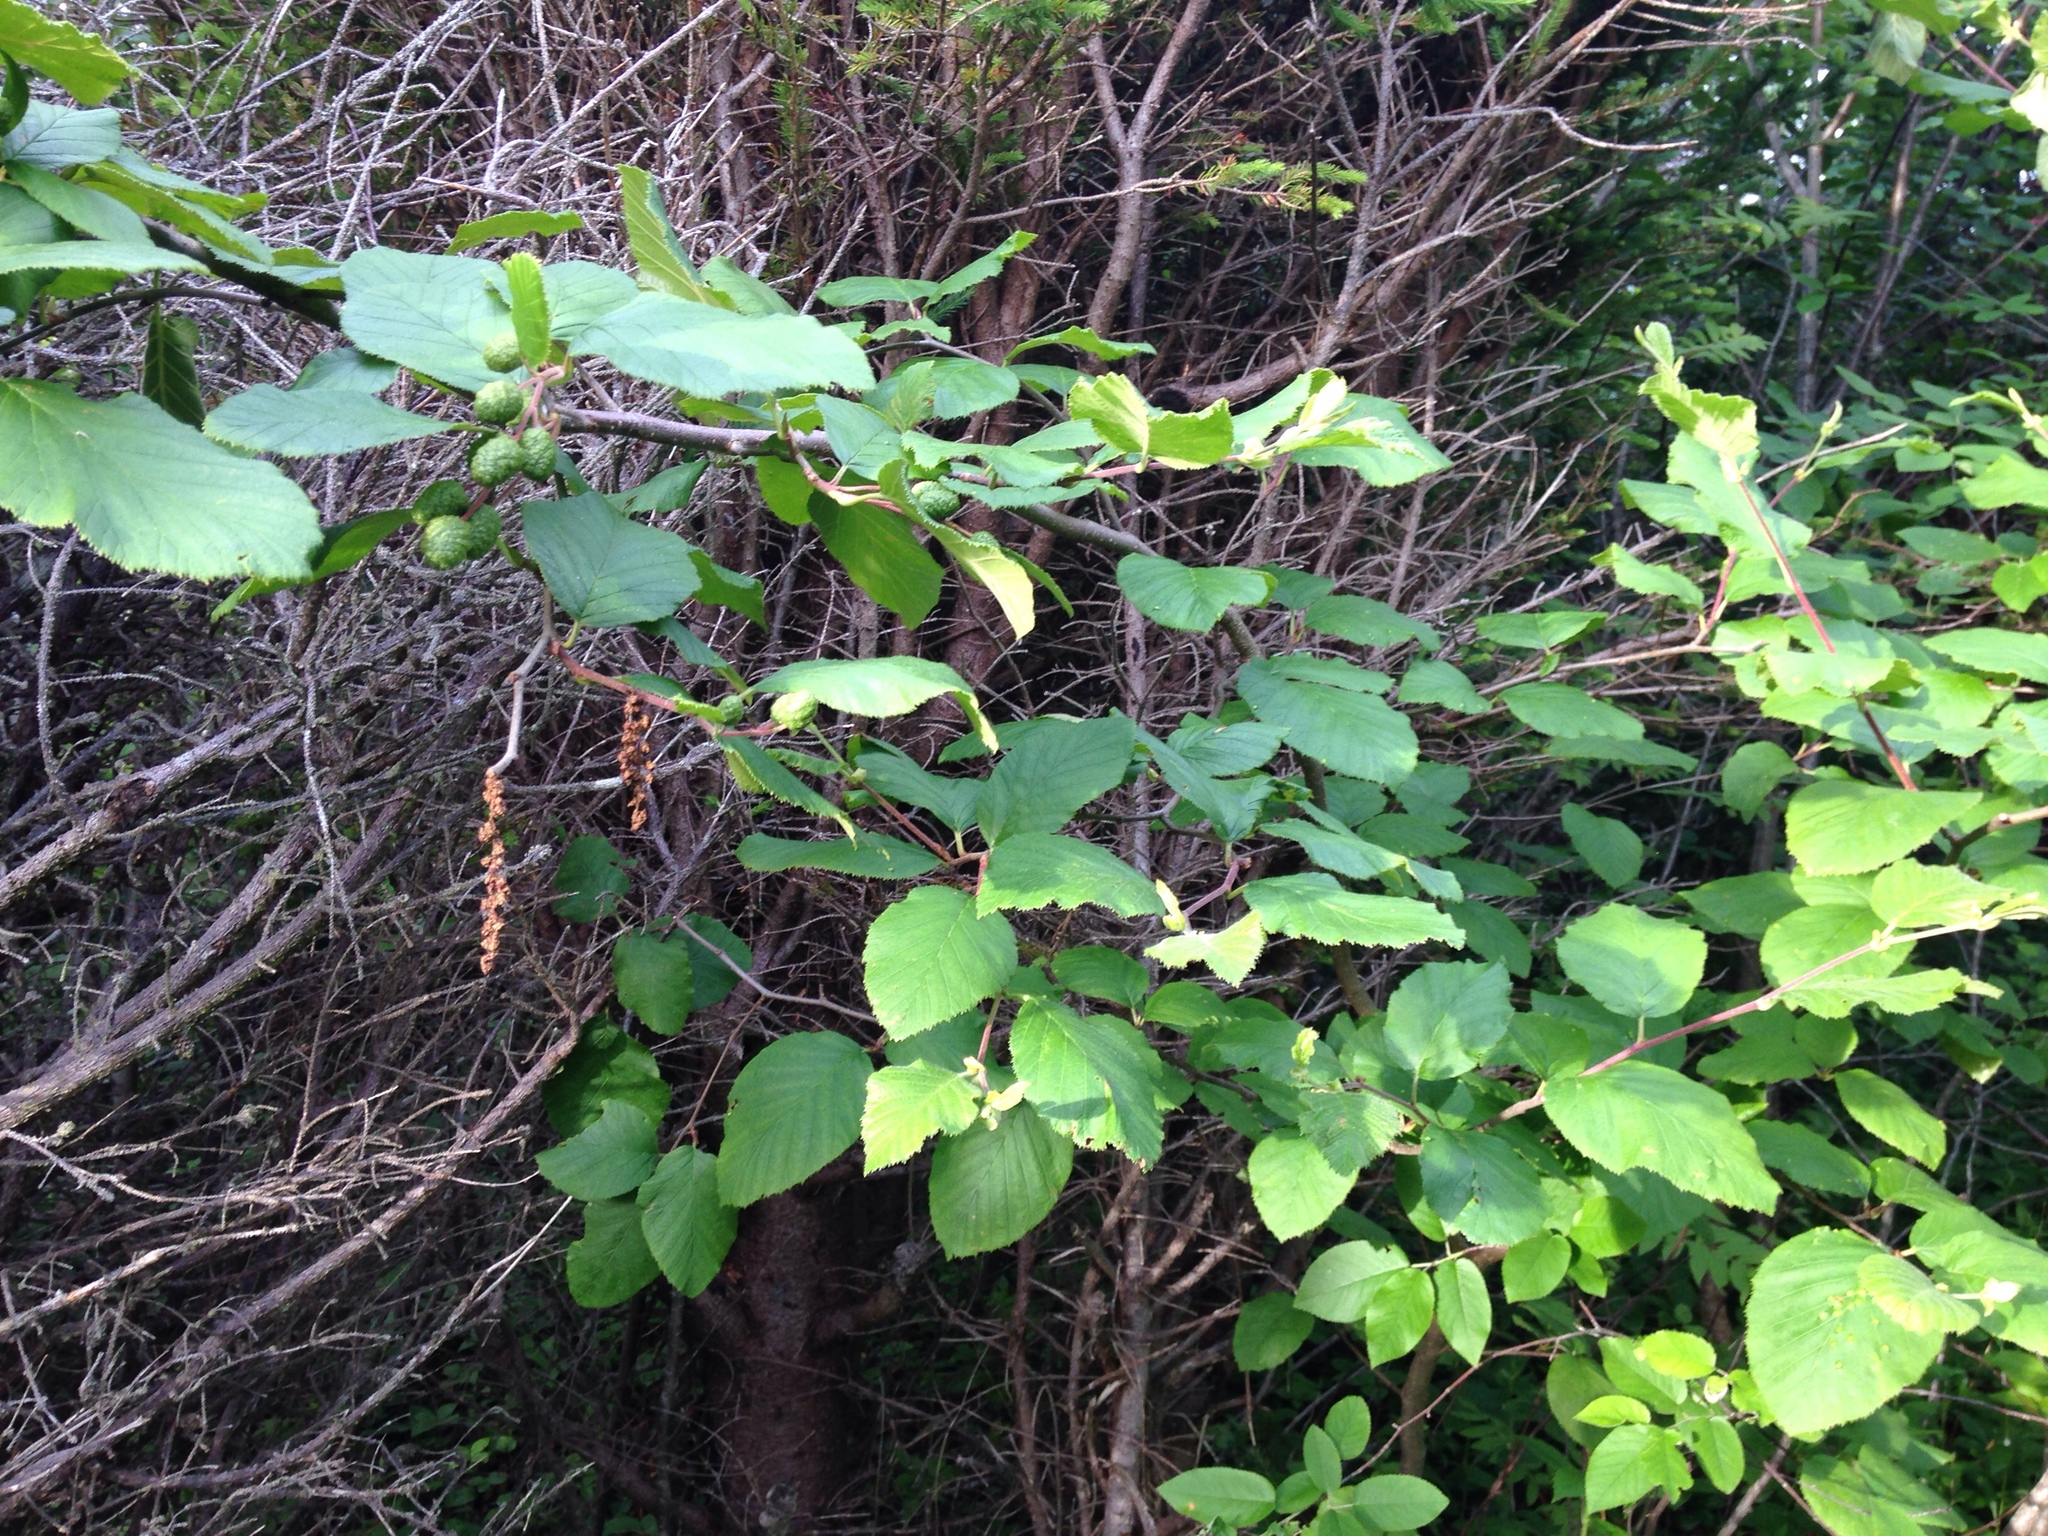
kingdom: Plantae
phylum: Tracheophyta
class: Magnoliopsida
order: Fagales
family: Betulaceae
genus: Alnus
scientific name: Alnus alnobetula
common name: Green alder
